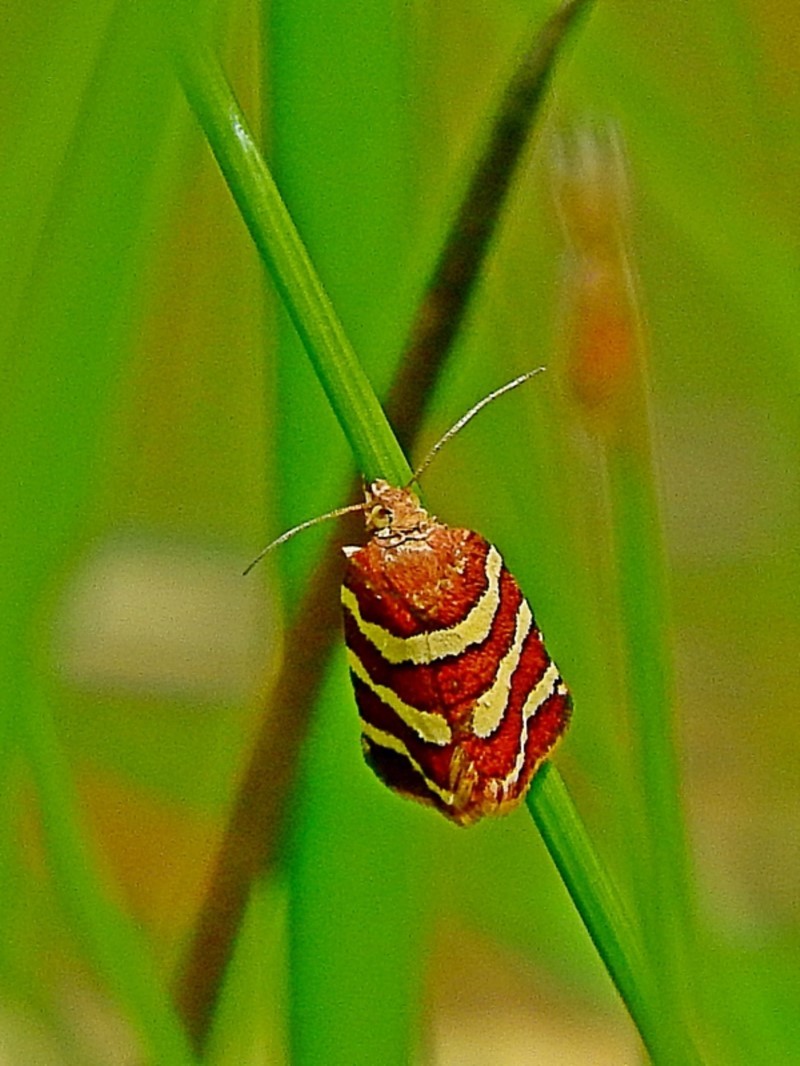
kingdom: Animalia
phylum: Arthropoda
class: Insecta
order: Lepidoptera
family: Tortricidae
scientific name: Tortricidae
